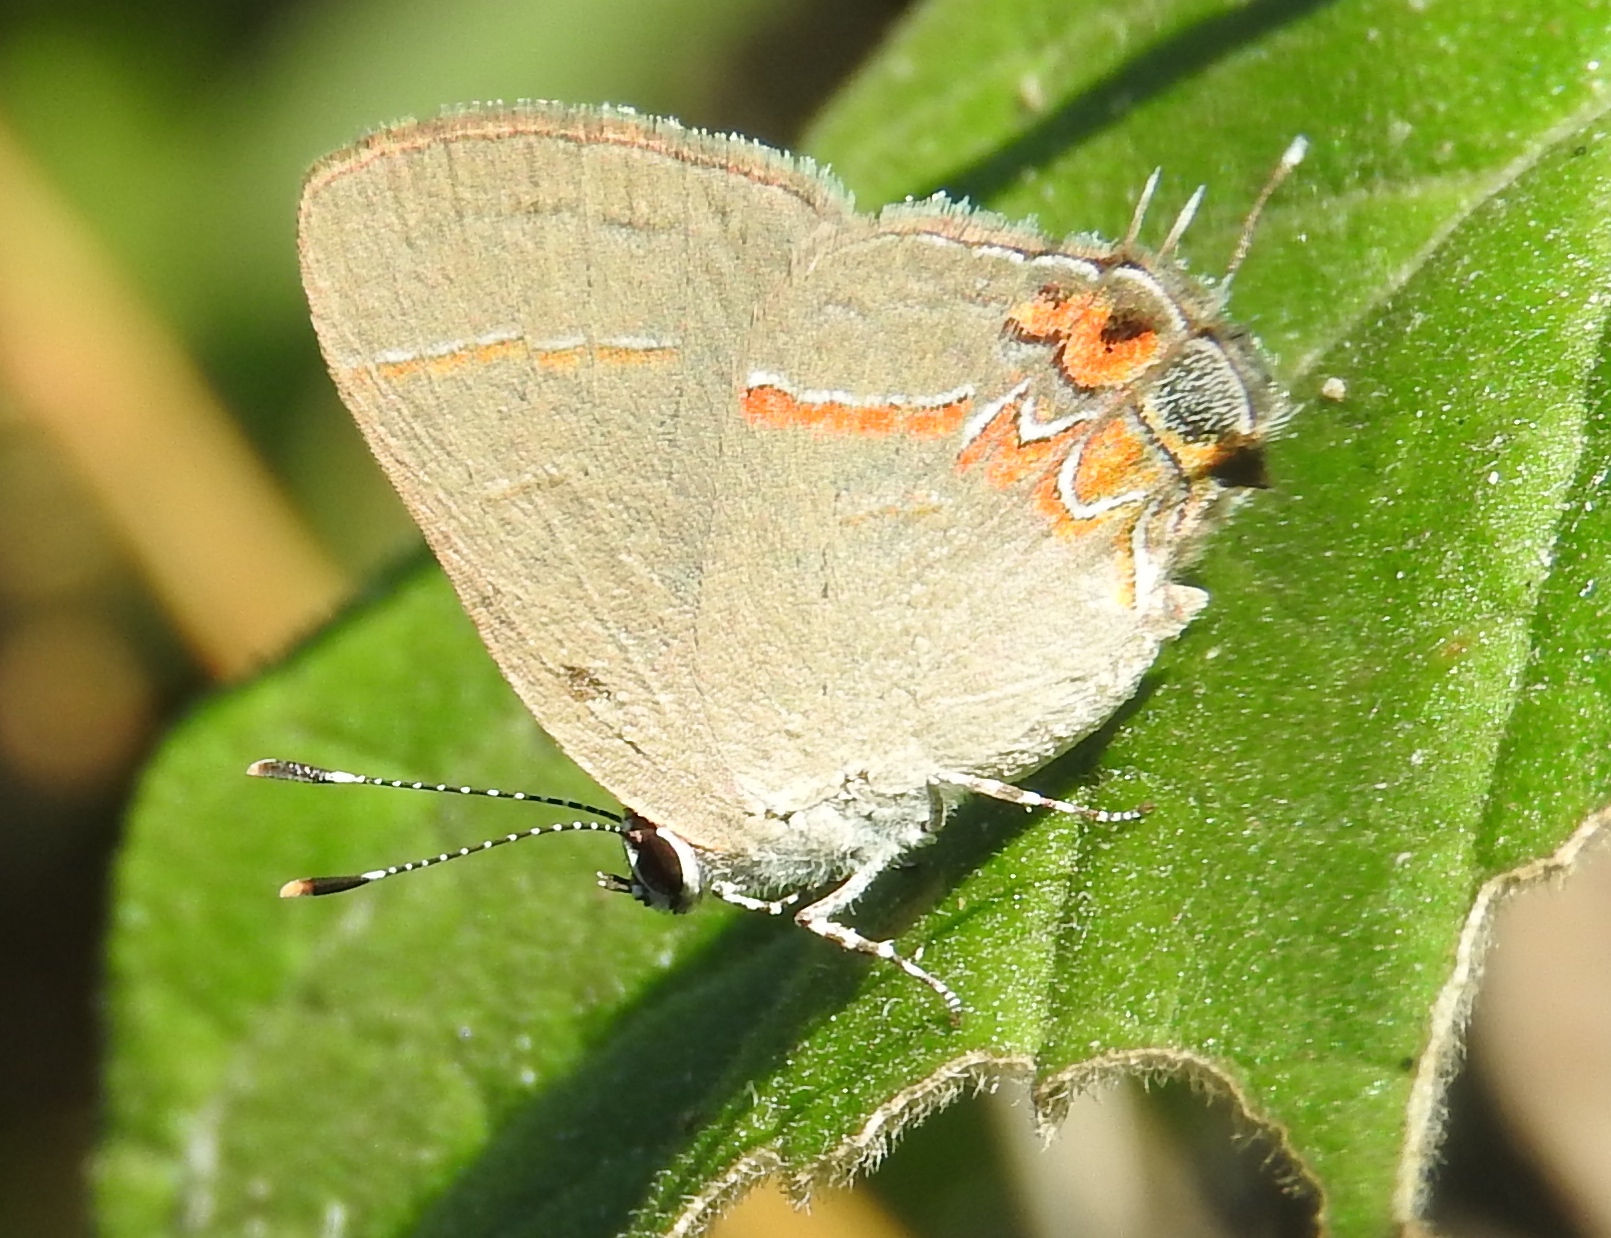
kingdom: Animalia
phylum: Arthropoda
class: Insecta
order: Lepidoptera
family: Lycaenidae
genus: Calycopis
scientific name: Calycopis isobeon
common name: Dusky-blue groundstreak
